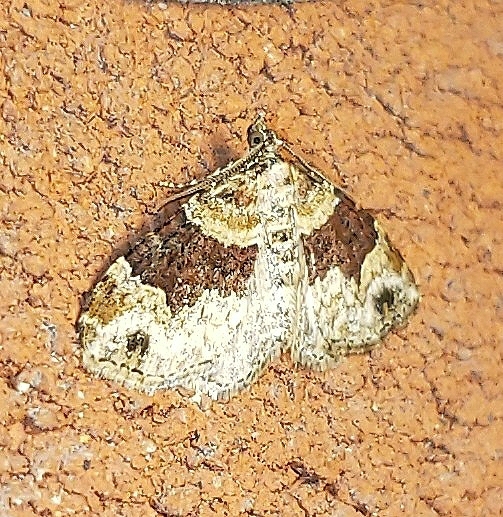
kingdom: Animalia
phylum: Arthropoda
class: Insecta
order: Lepidoptera
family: Geometridae
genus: Xanthorhoe
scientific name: Xanthorhoe ferrugata
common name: Dark-barred twin-spot carpet
